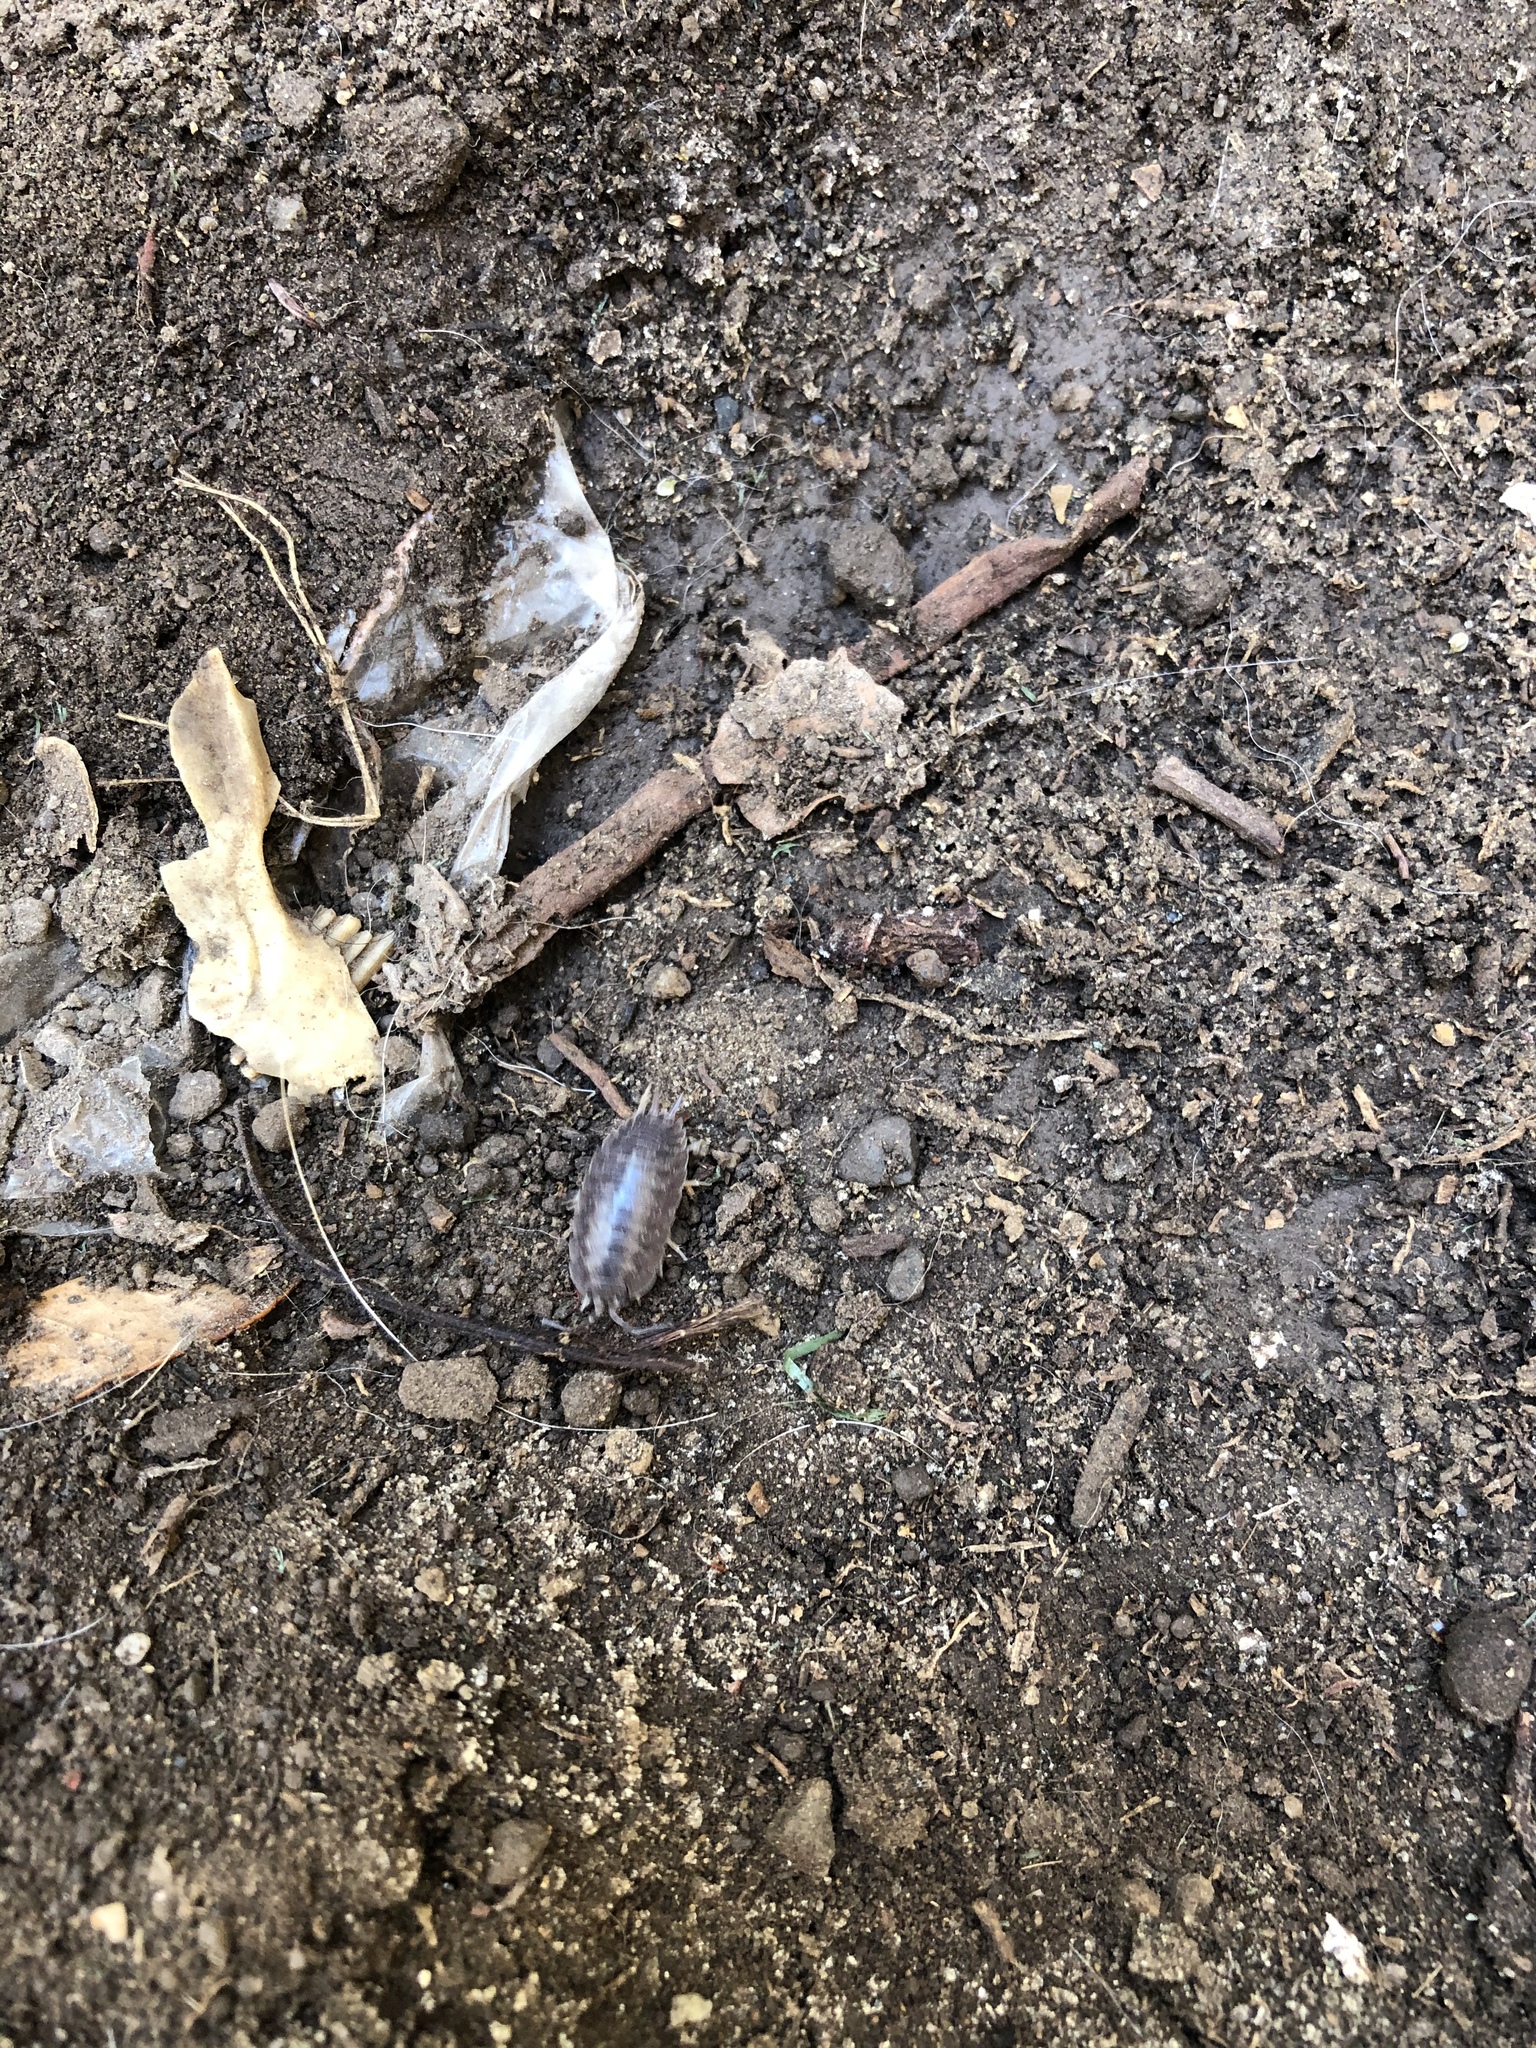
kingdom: Animalia
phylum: Arthropoda
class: Malacostraca
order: Isopoda
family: Porcellionidae
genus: Porcellio
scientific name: Porcellio laevis
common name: Swift woodlouse
